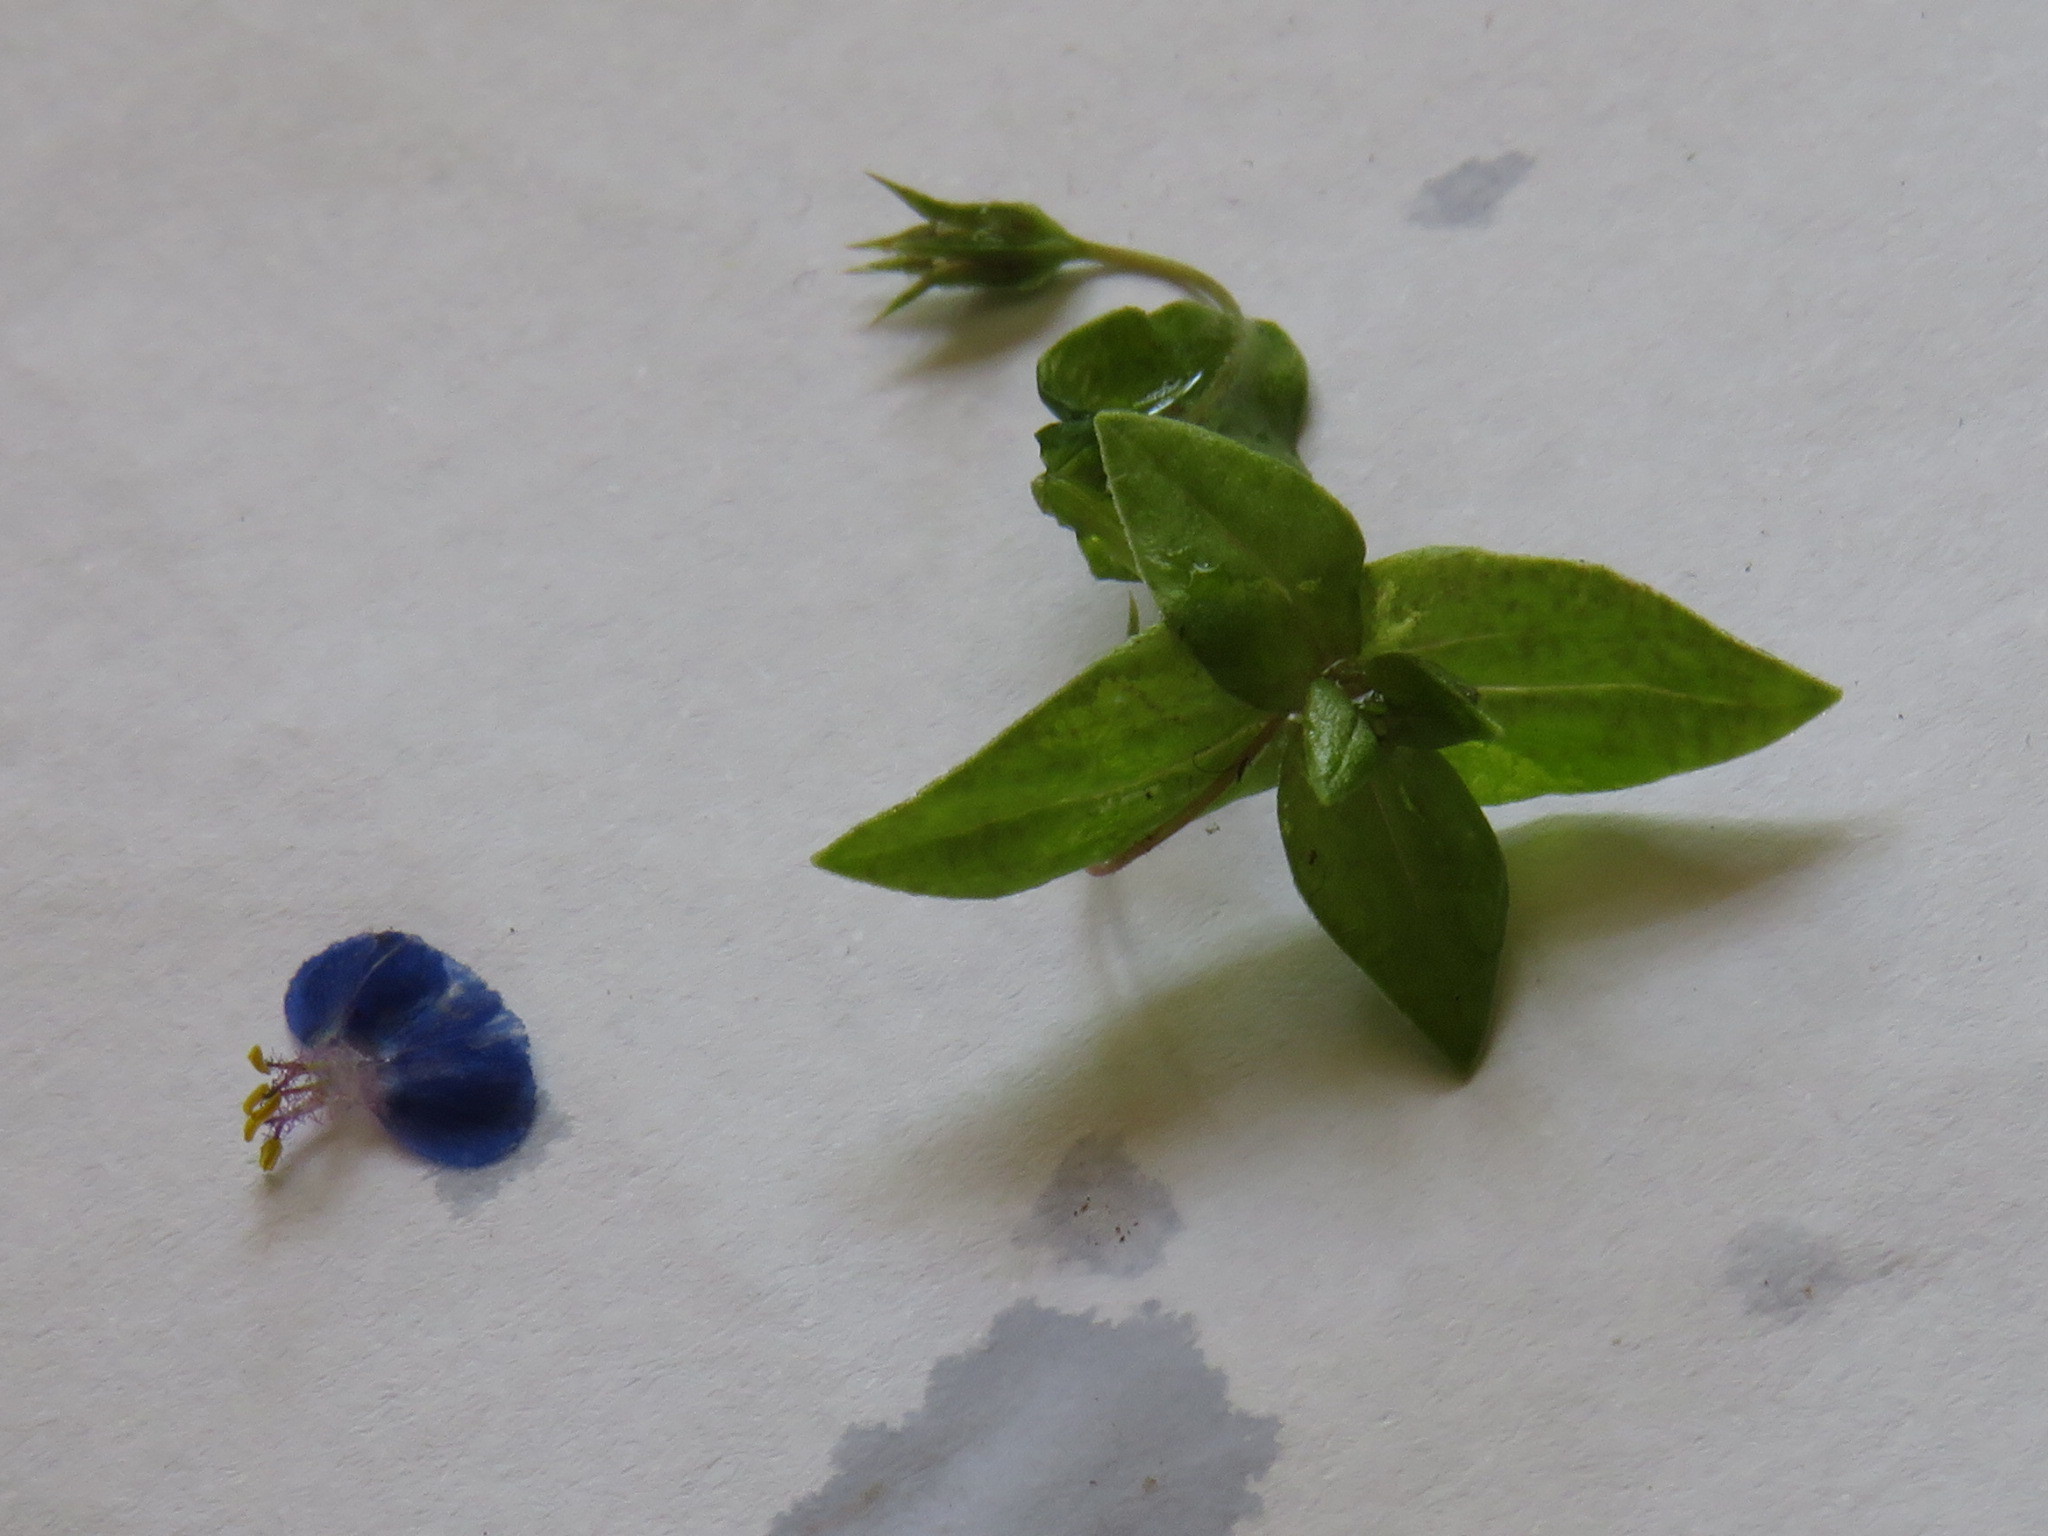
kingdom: Plantae
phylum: Tracheophyta
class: Magnoliopsida
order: Ericales
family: Primulaceae
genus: Lysimachia
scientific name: Lysimachia loeflingii
